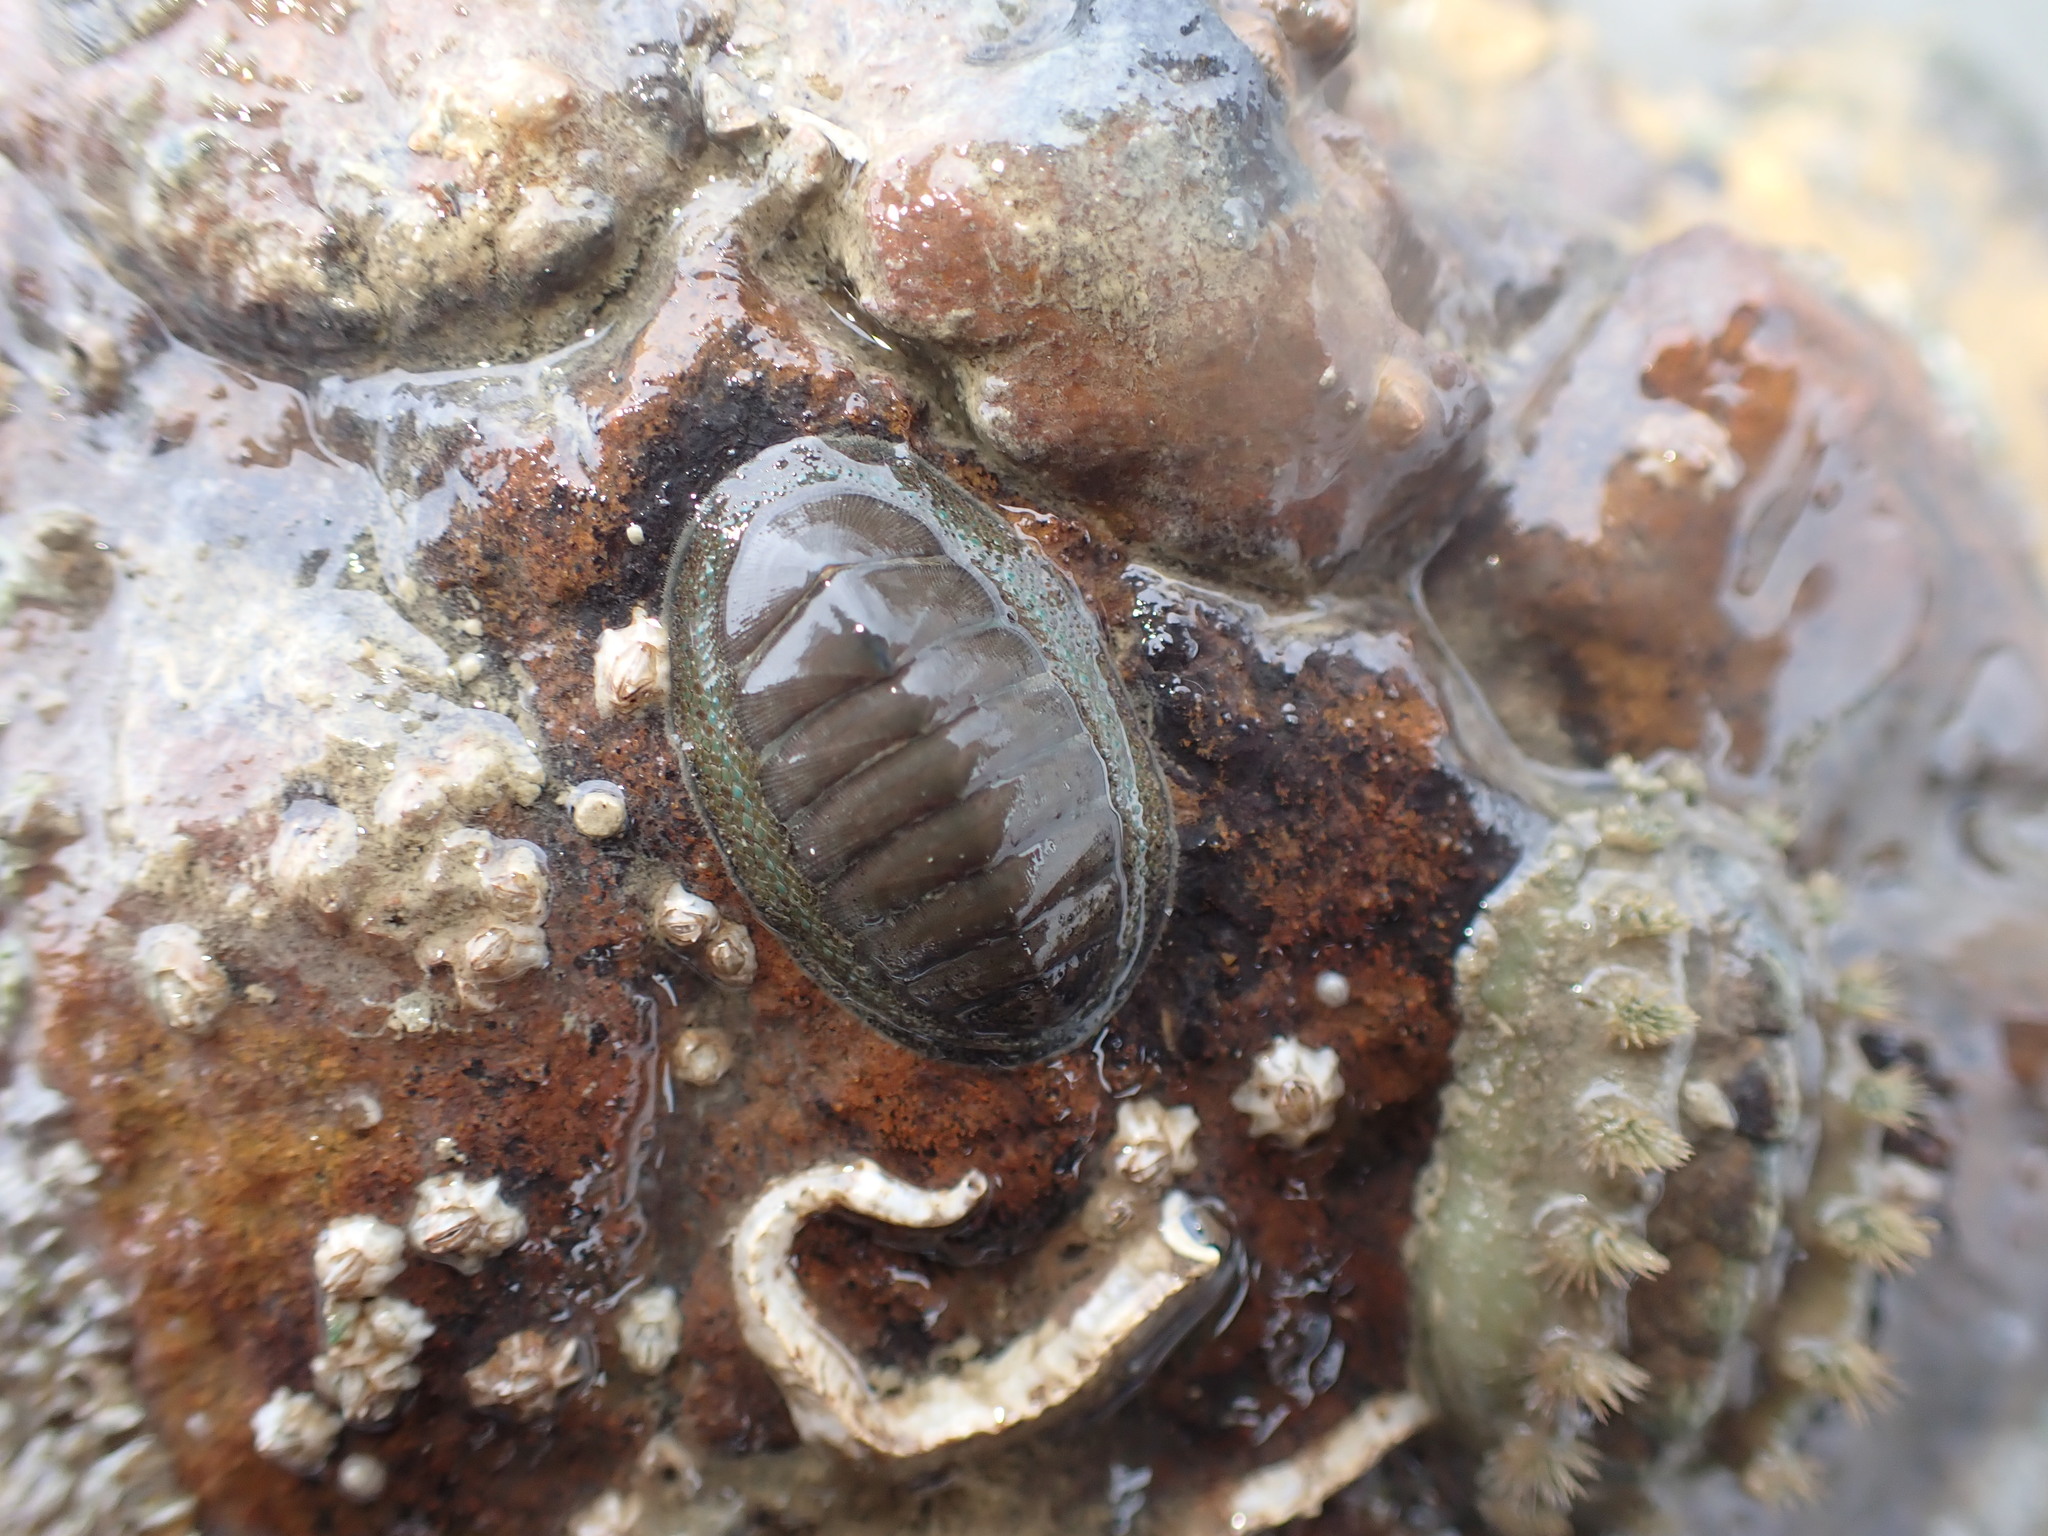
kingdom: Animalia
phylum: Mollusca
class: Polyplacophora
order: Chitonida
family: Chitonidae
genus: Chiton
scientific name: Chiton glaucus
